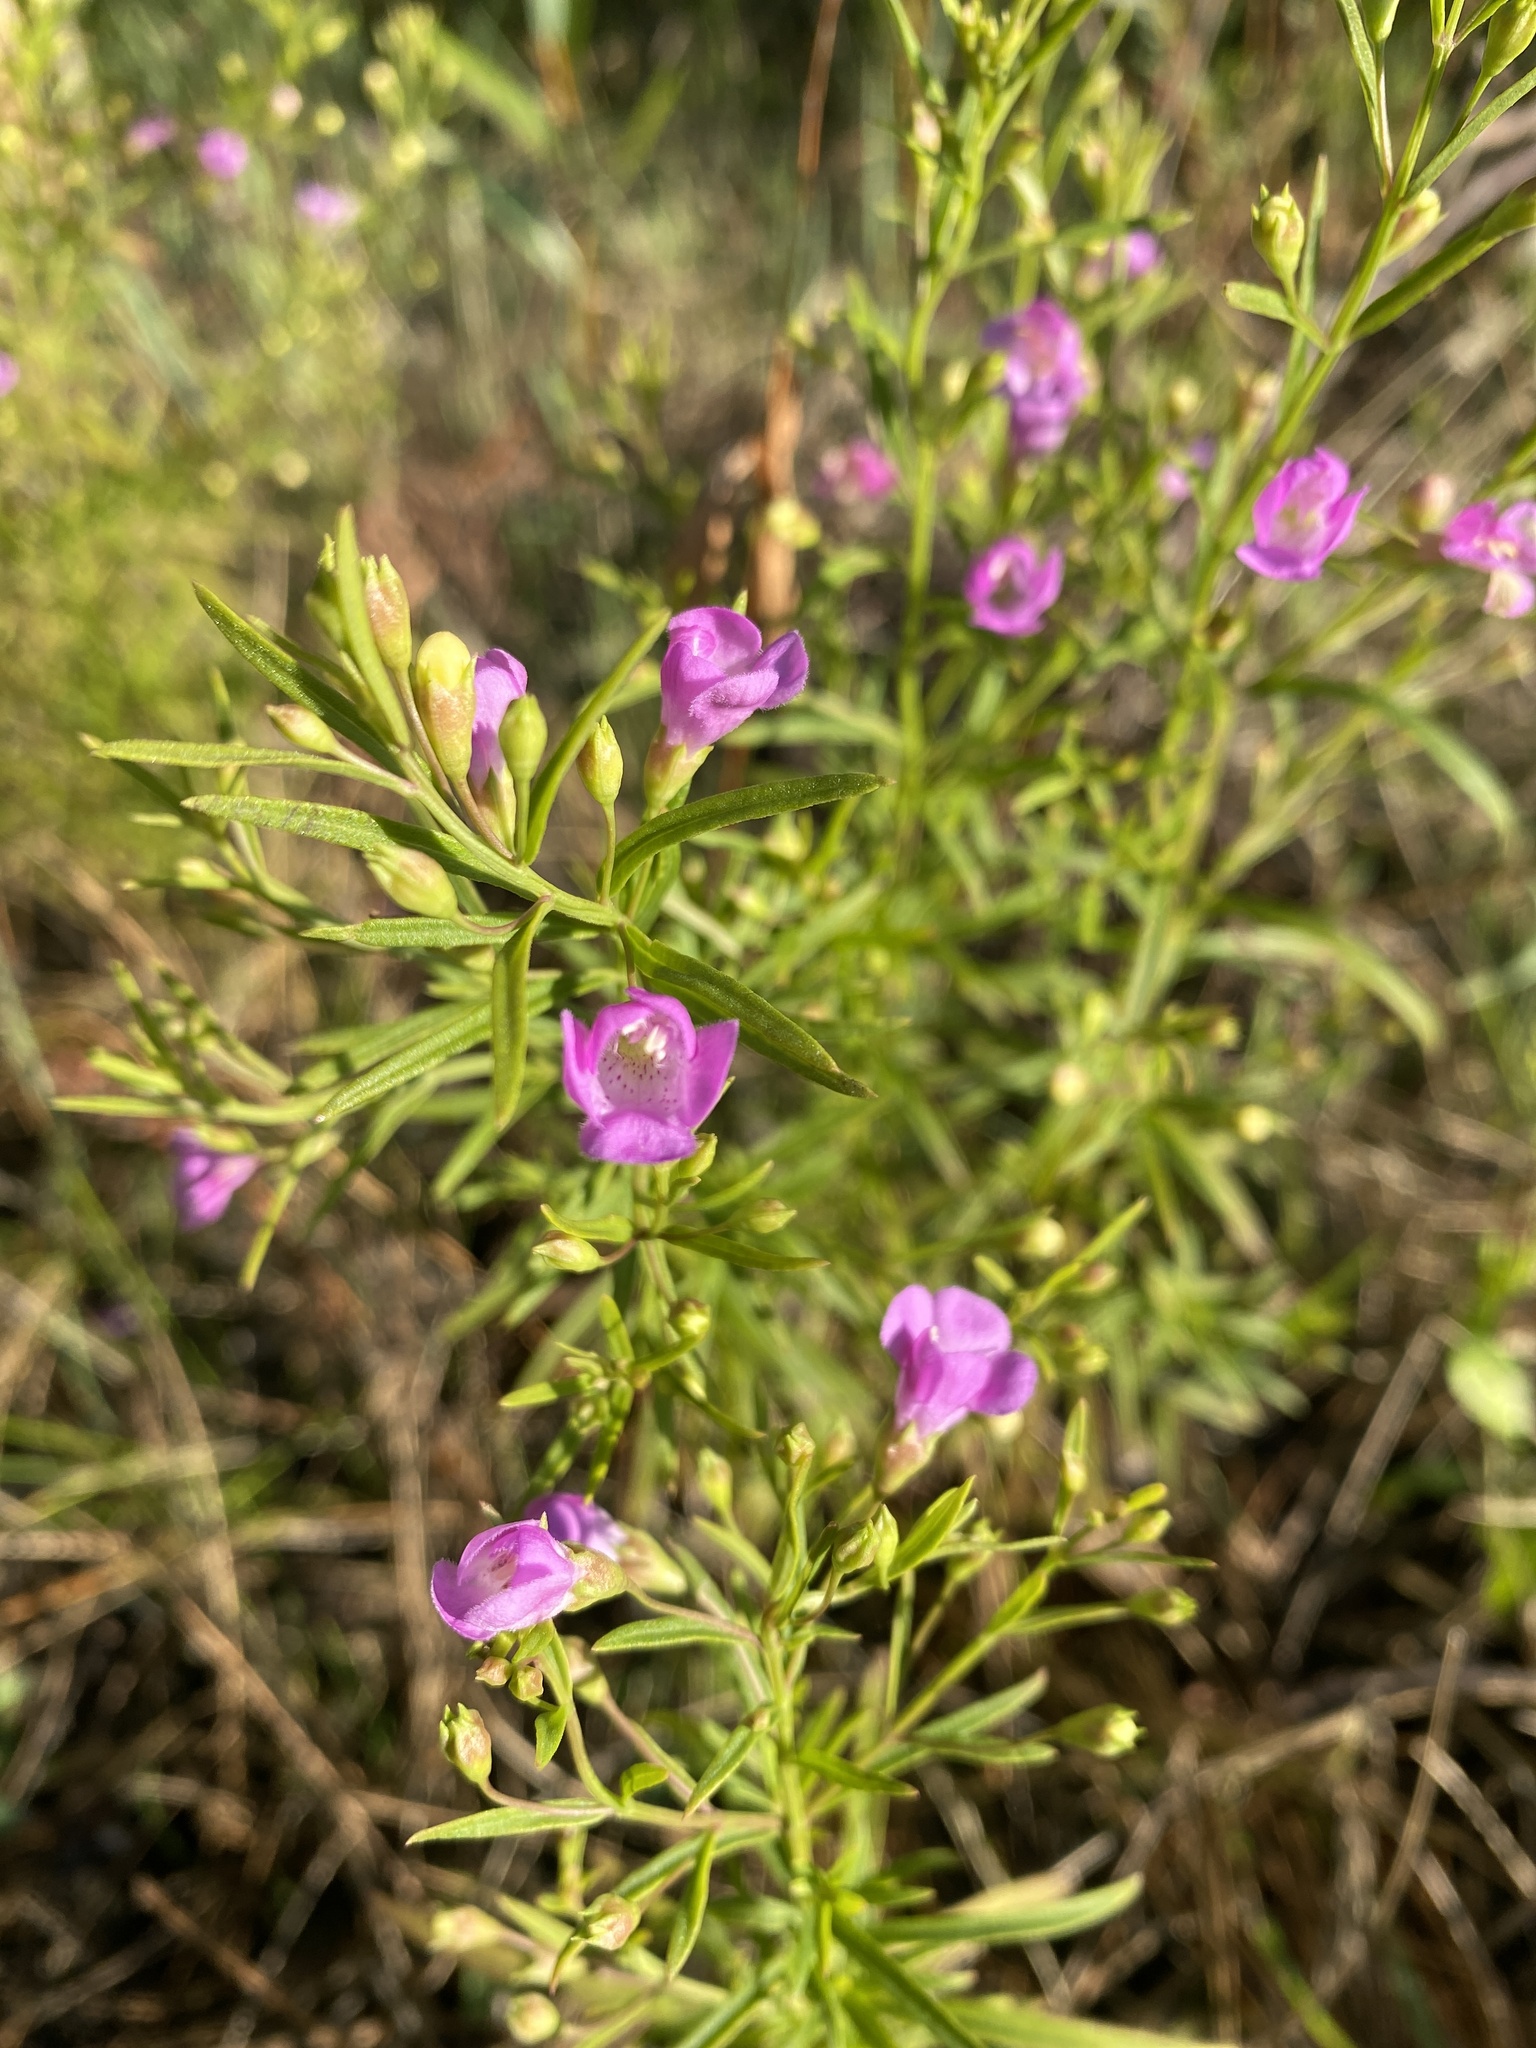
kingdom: Plantae
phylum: Tracheophyta
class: Magnoliopsida
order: Lamiales
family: Orobanchaceae
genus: Agalinis
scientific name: Agalinis tenuifolia
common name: Slender agalinis
